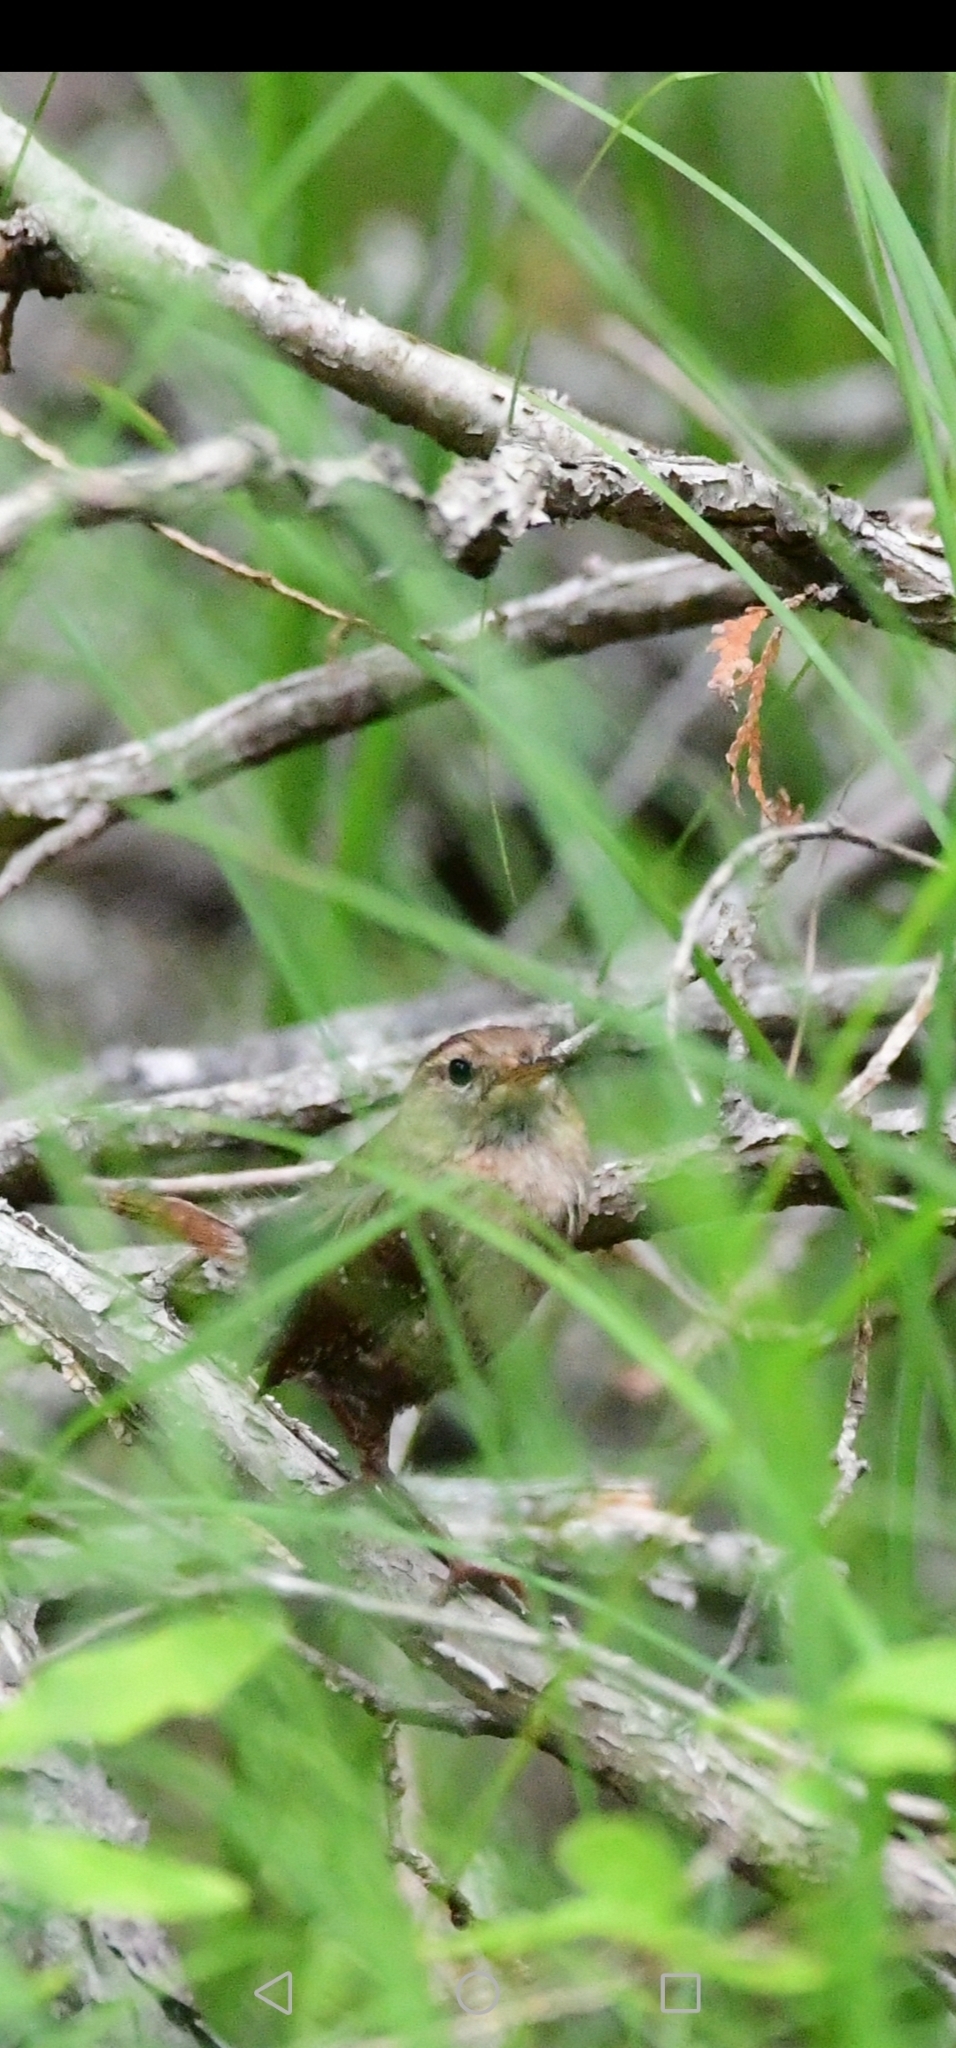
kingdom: Animalia
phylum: Chordata
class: Aves
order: Passeriformes
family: Troglodytidae
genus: Troglodytes
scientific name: Troglodytes hiemalis
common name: Winter wren
